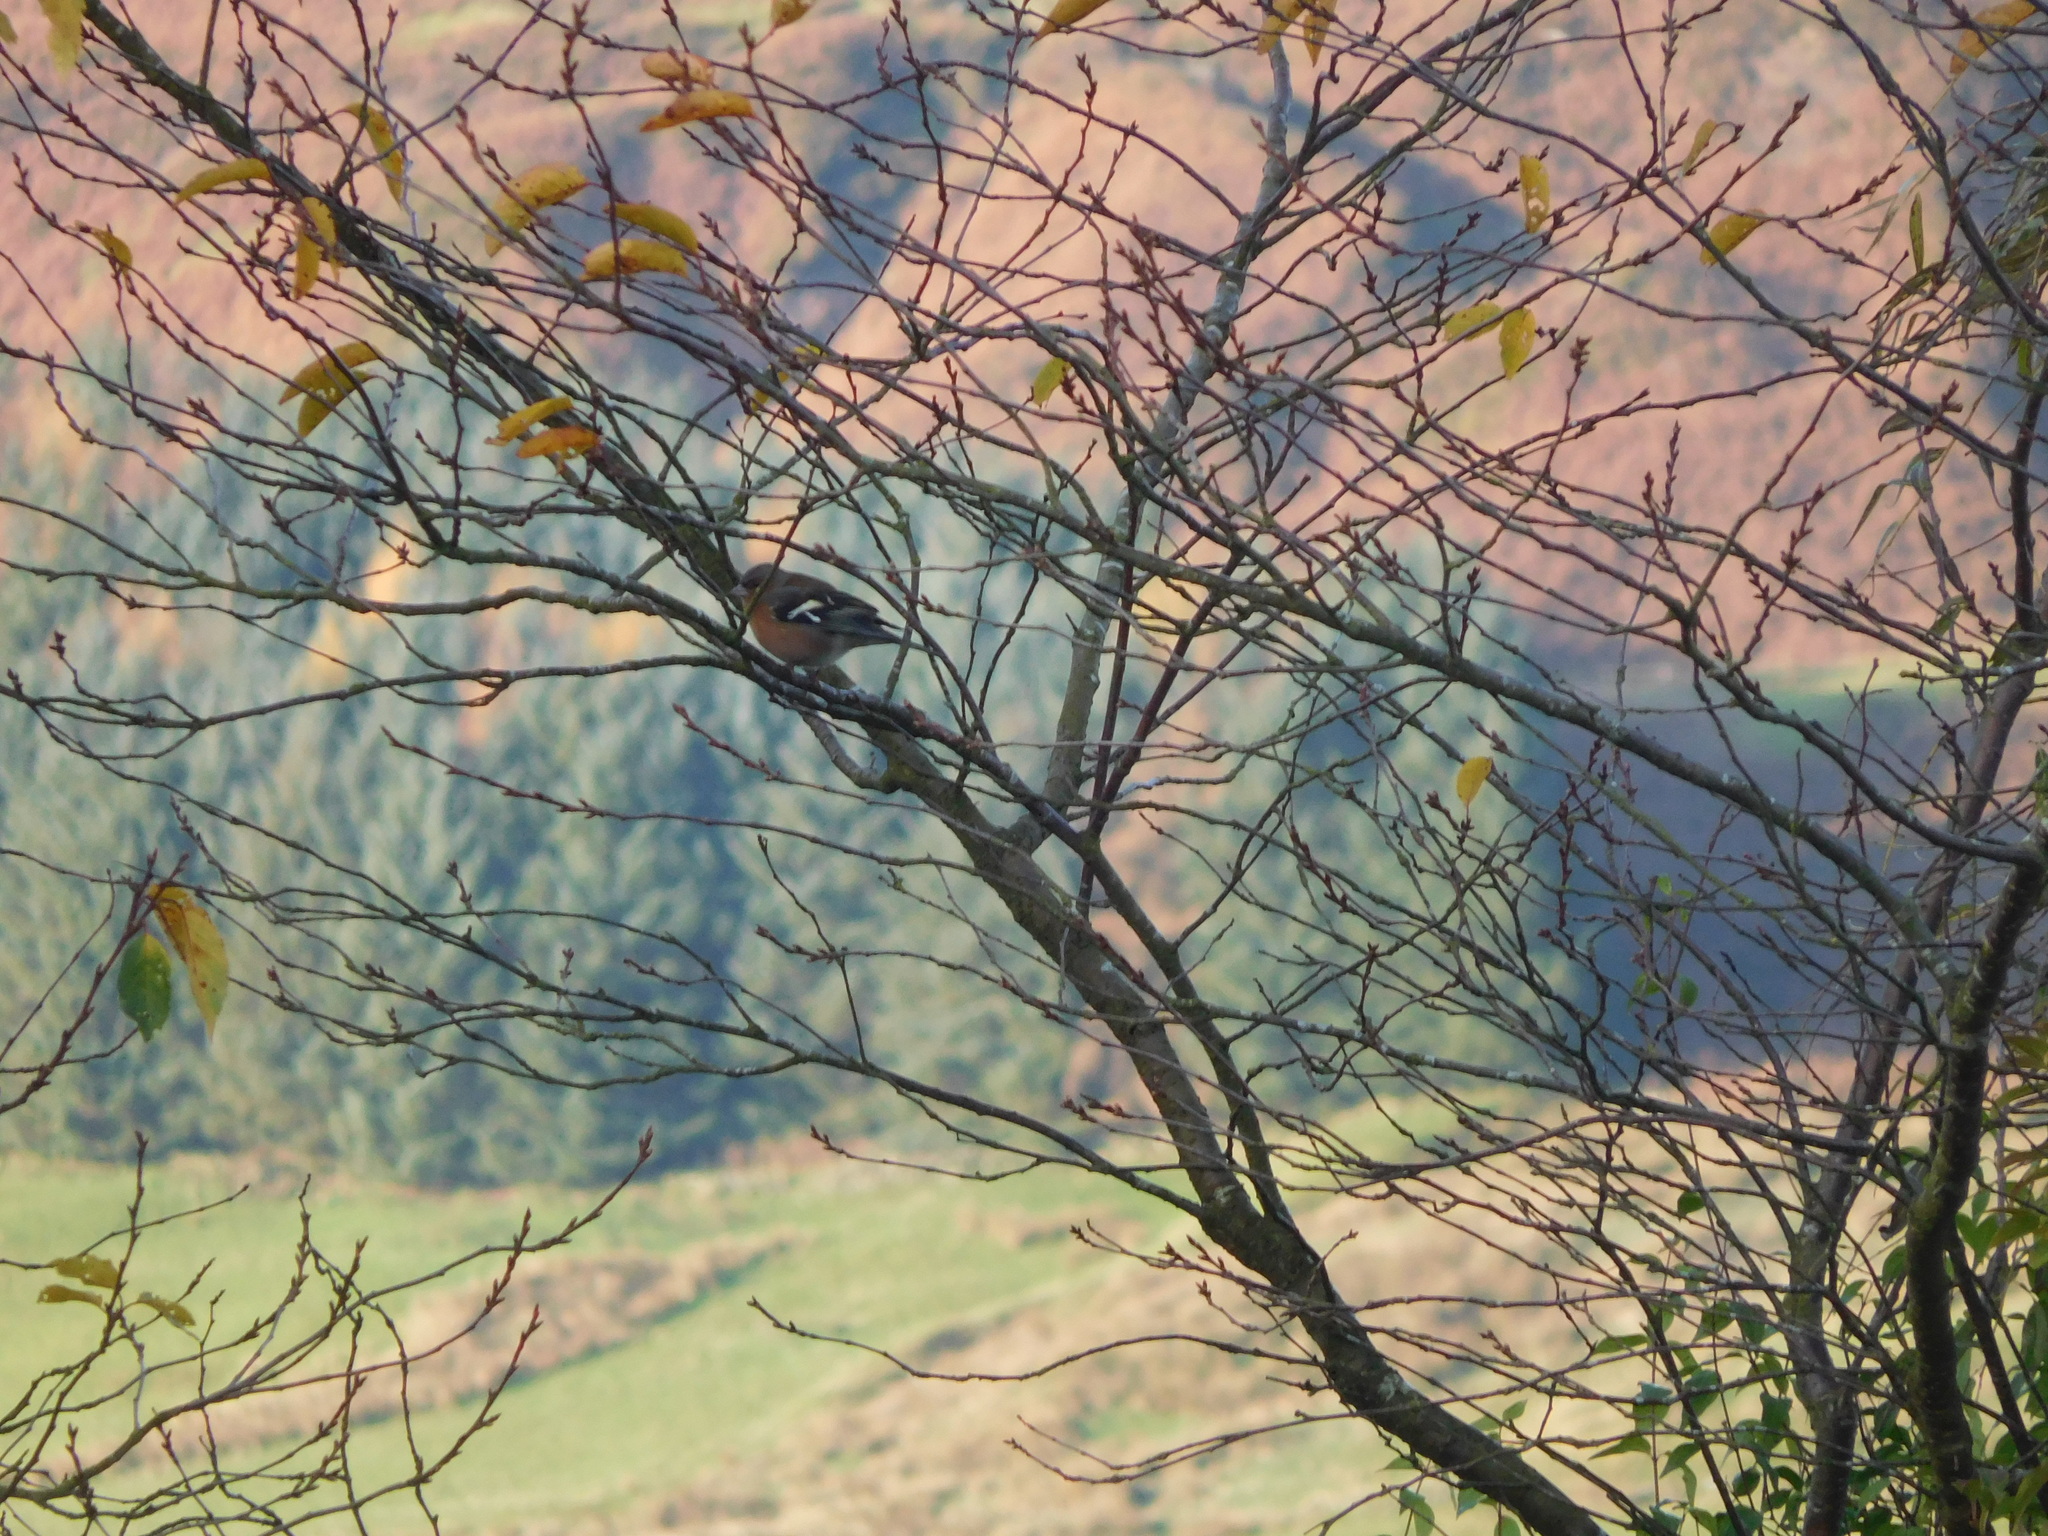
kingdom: Animalia
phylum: Chordata
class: Aves
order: Passeriformes
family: Fringillidae
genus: Fringilla
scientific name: Fringilla coelebs
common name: Common chaffinch
